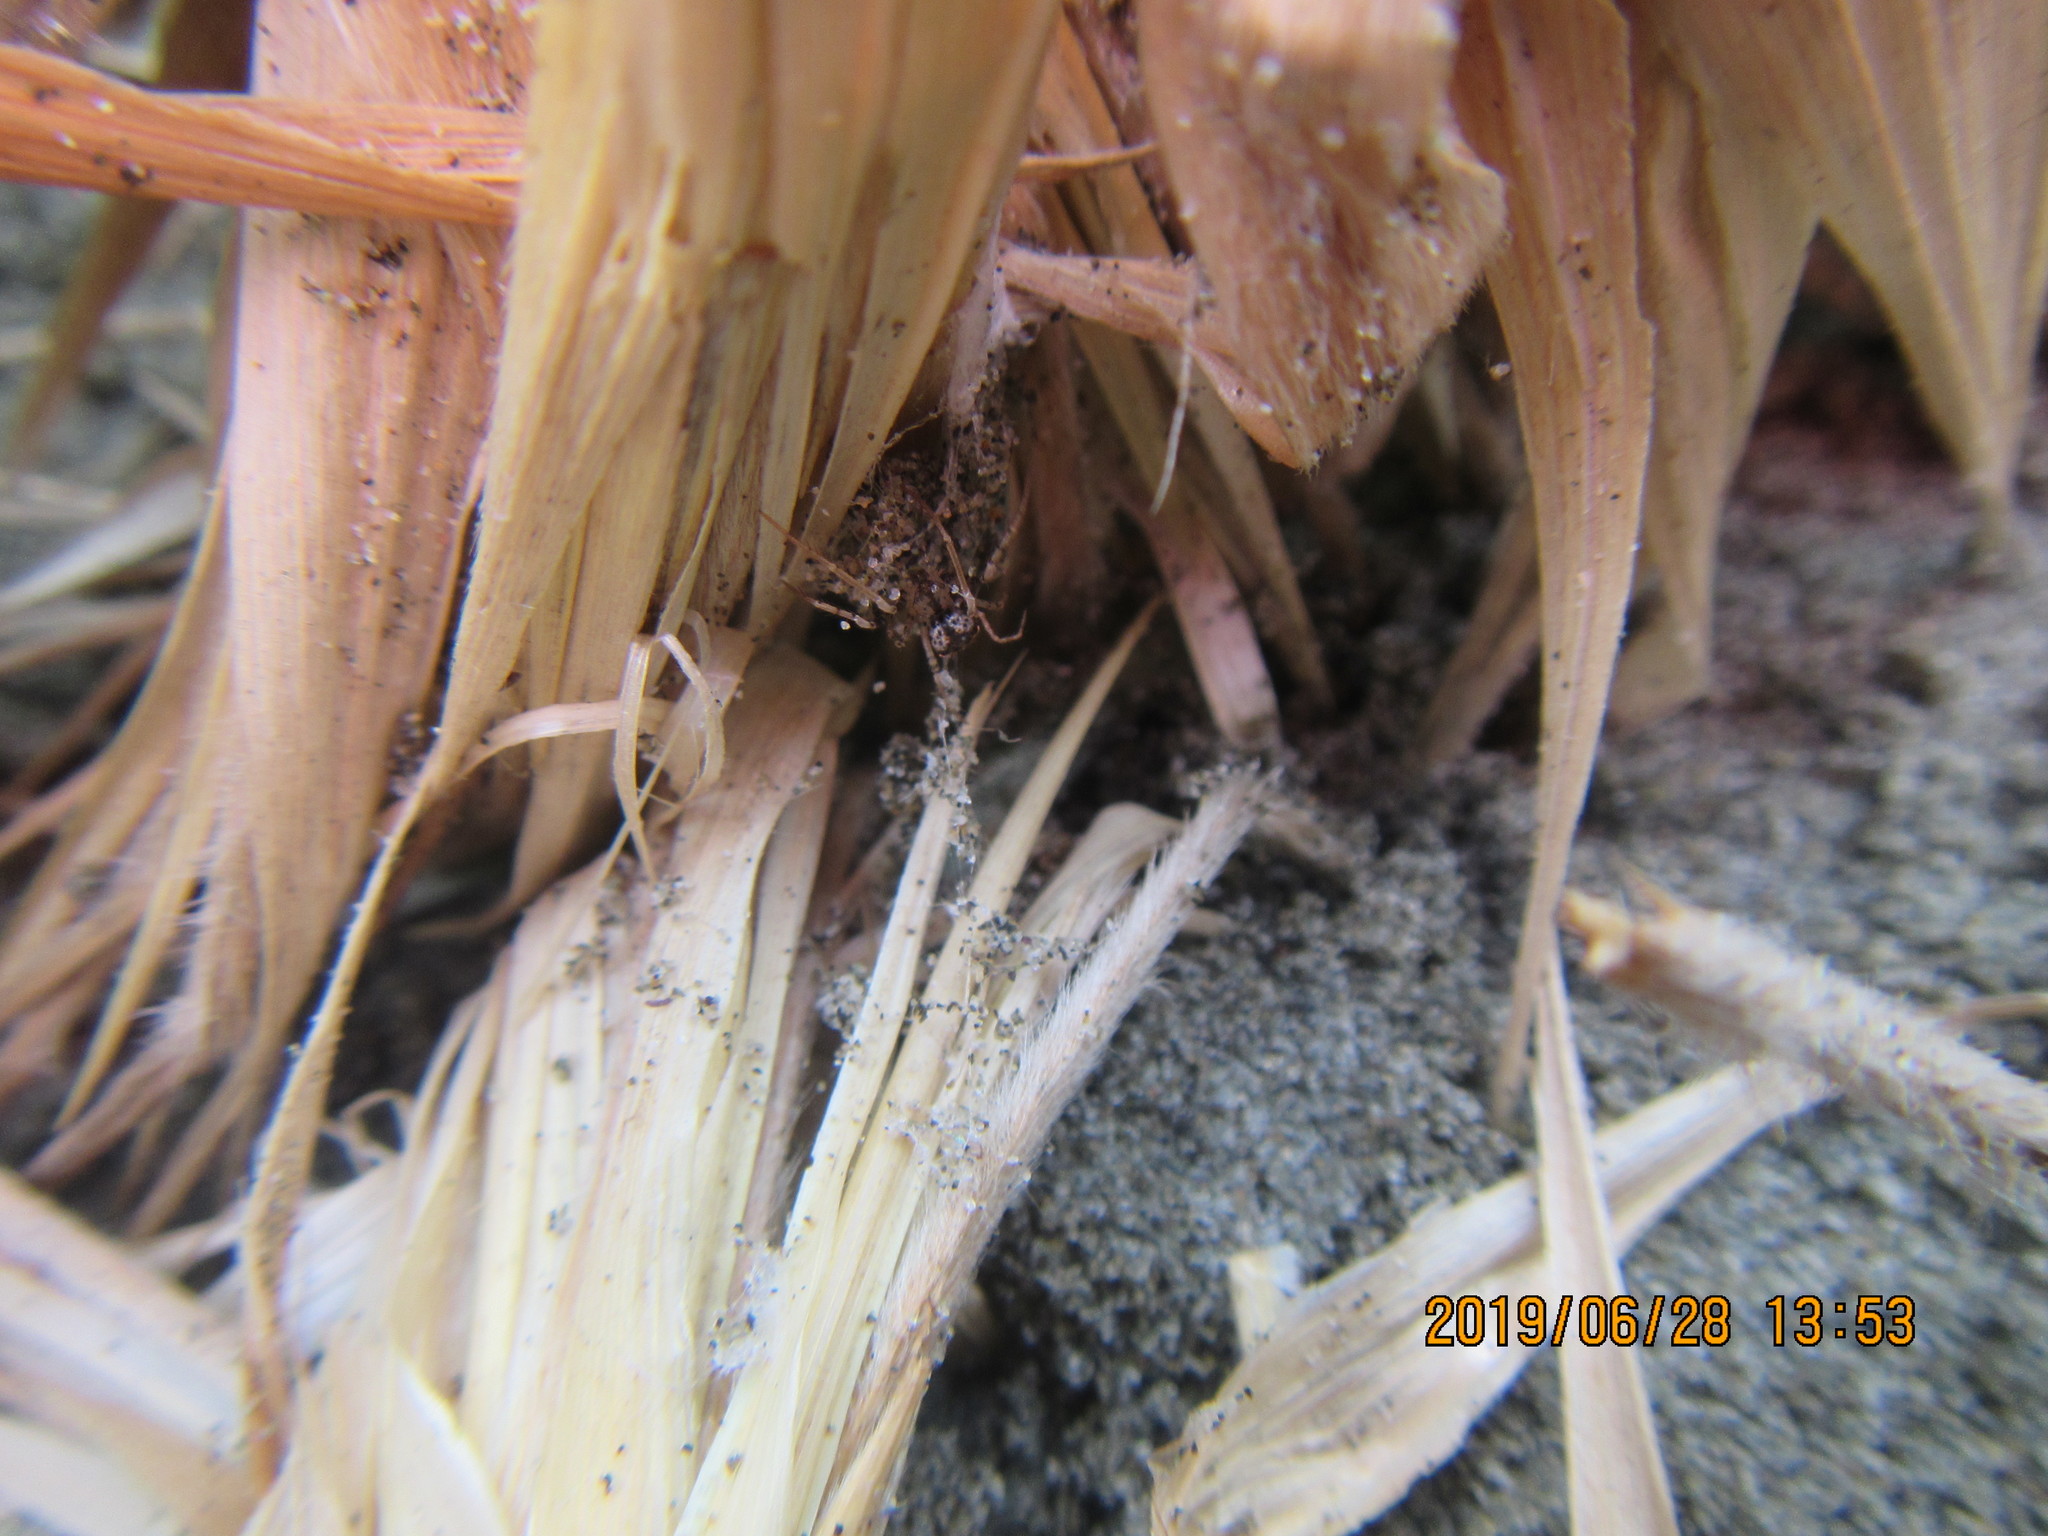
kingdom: Animalia
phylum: Arthropoda
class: Arachnida
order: Araneae
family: Mimetidae
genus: Australomimetus
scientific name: Australomimetus hartleyensis
